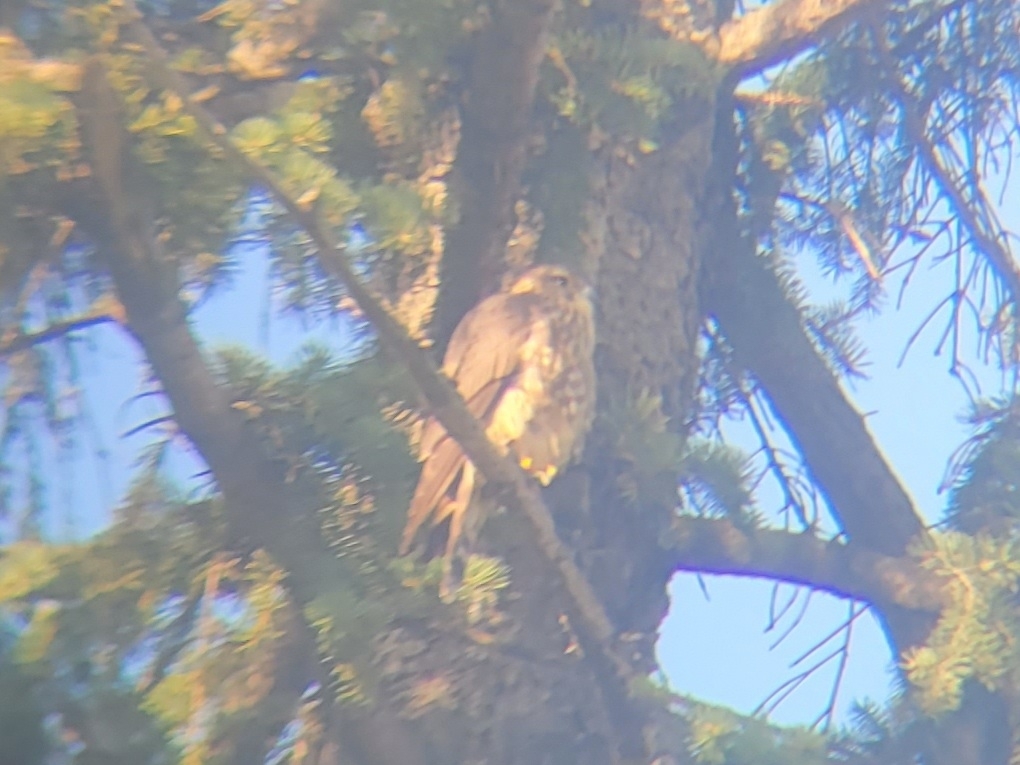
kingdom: Animalia
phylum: Chordata
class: Aves
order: Falconiformes
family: Falconidae
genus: Falco
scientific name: Falco columbarius
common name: Merlin
